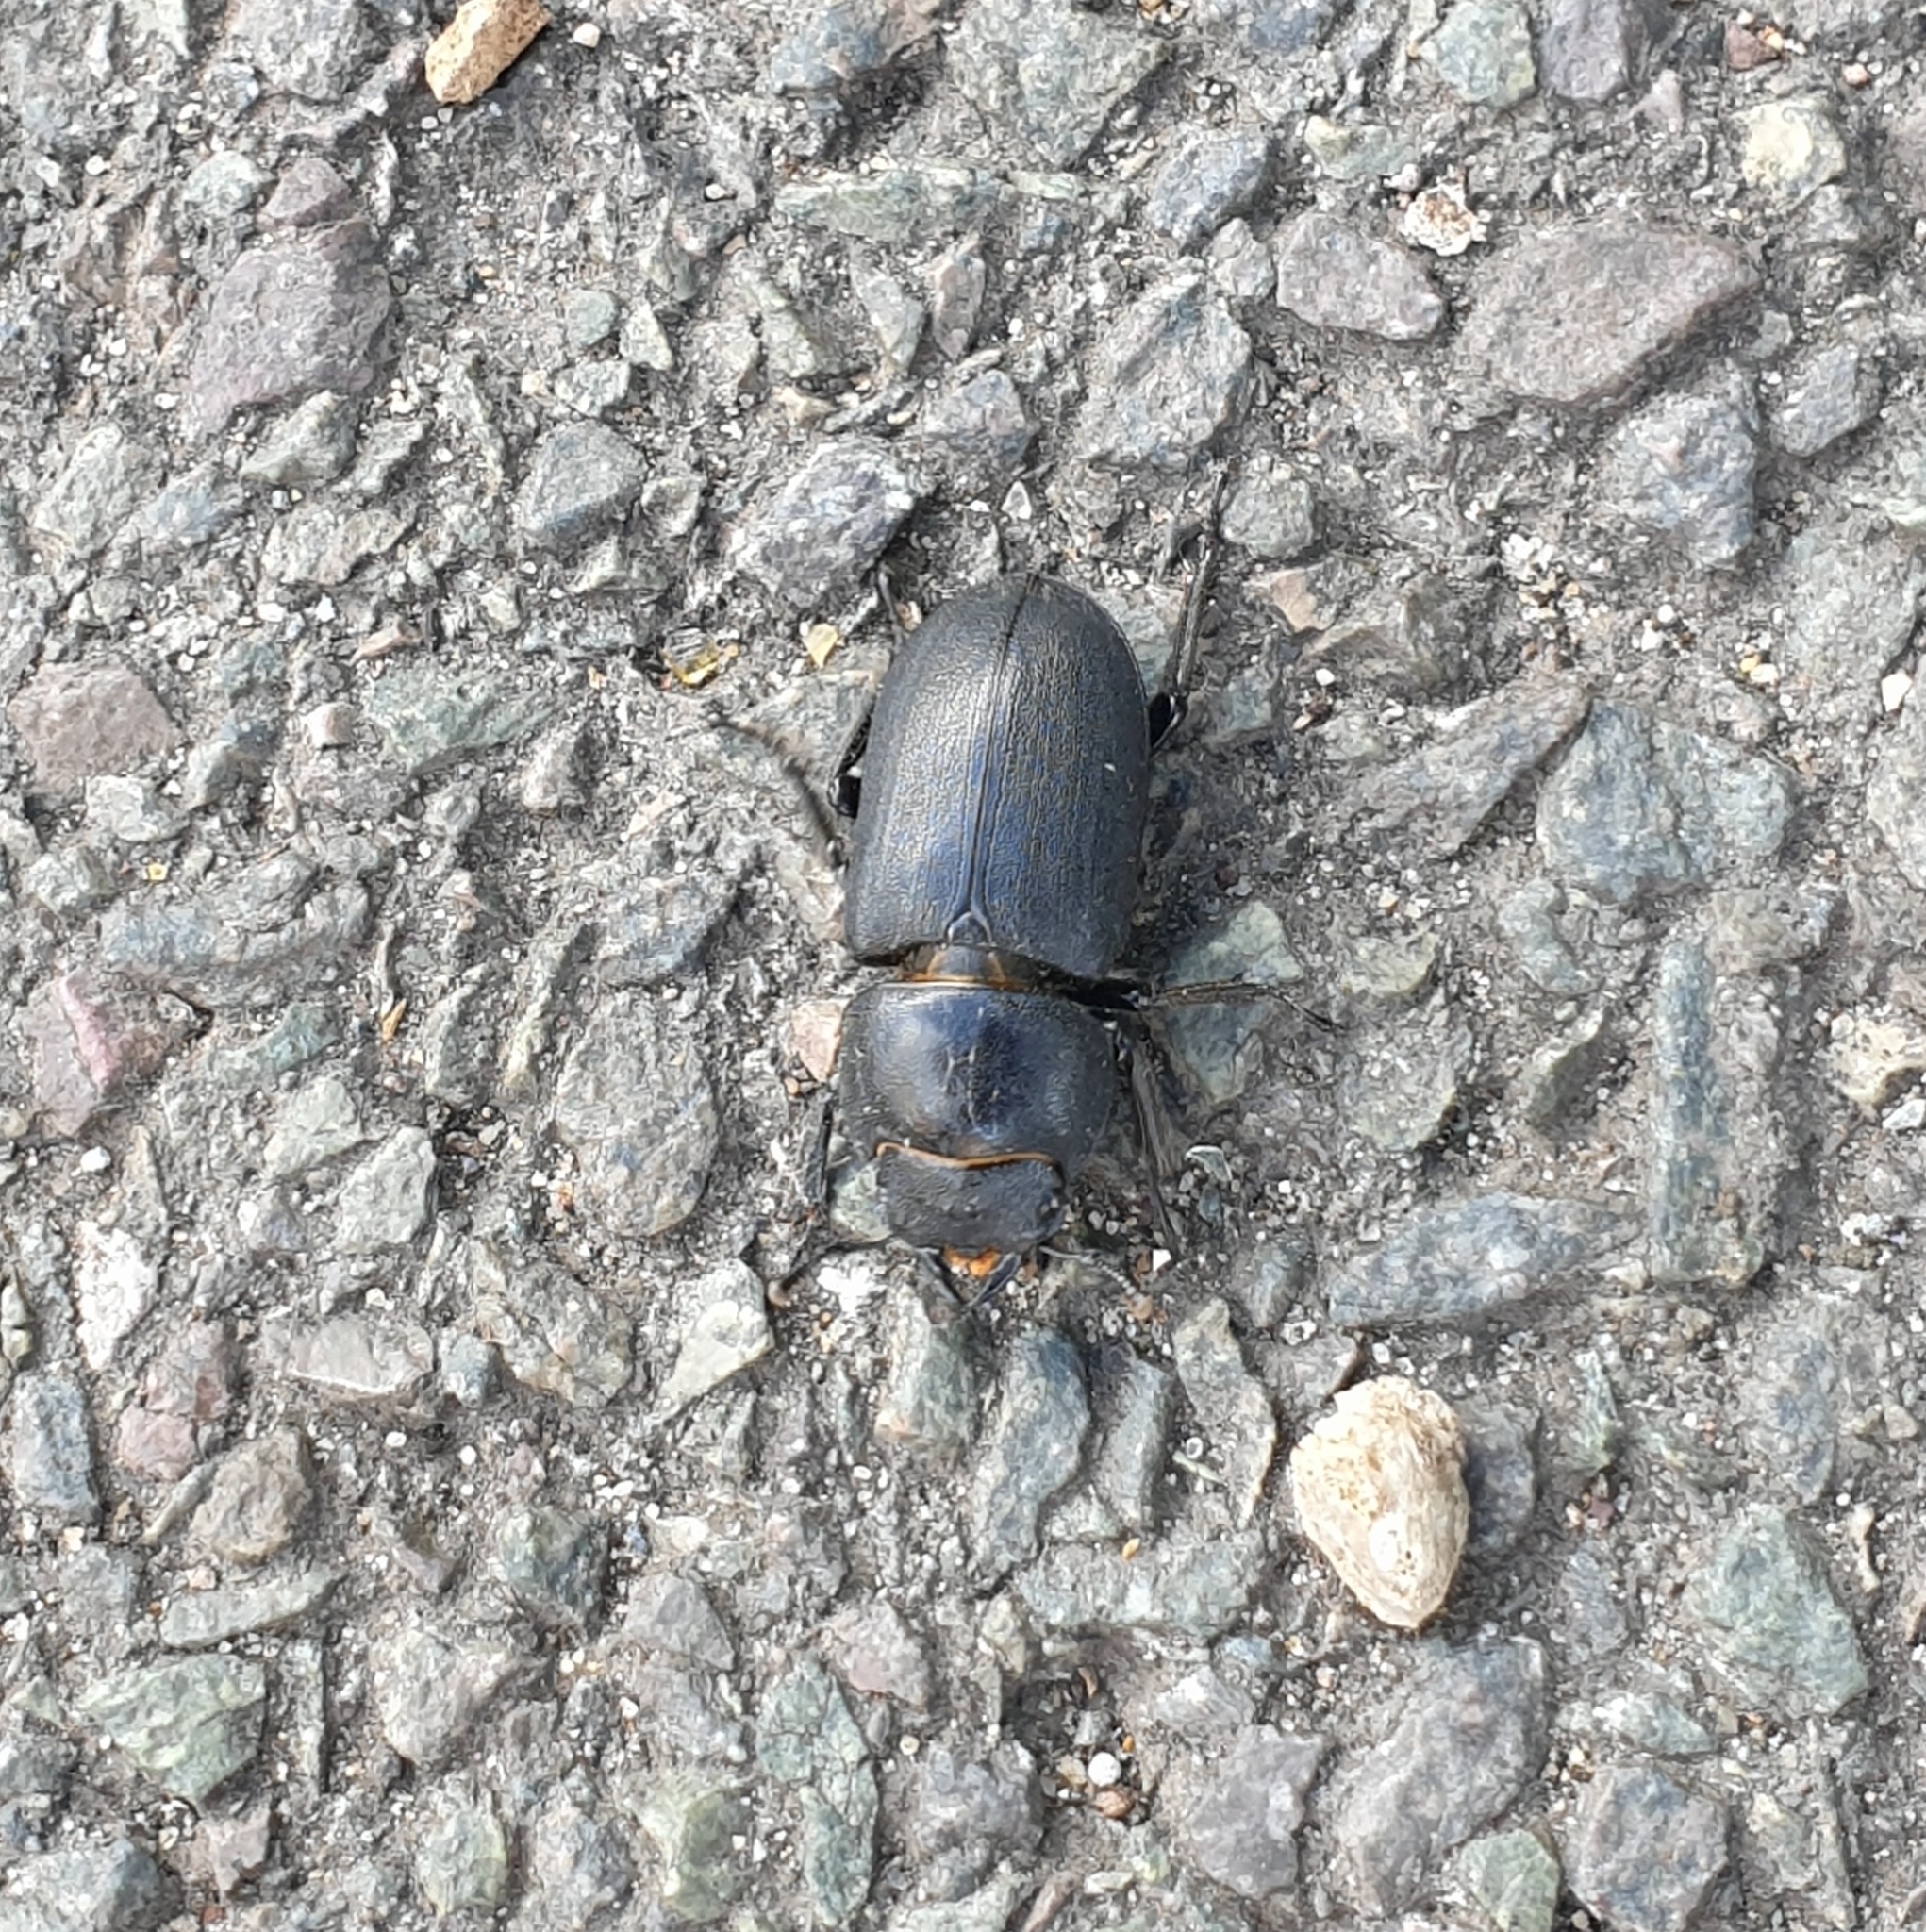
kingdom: Animalia
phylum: Arthropoda
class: Insecta
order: Coleoptera
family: Lucanidae
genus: Dorcus
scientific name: Dorcus parallelipipedus
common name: Lesser stag beetle
